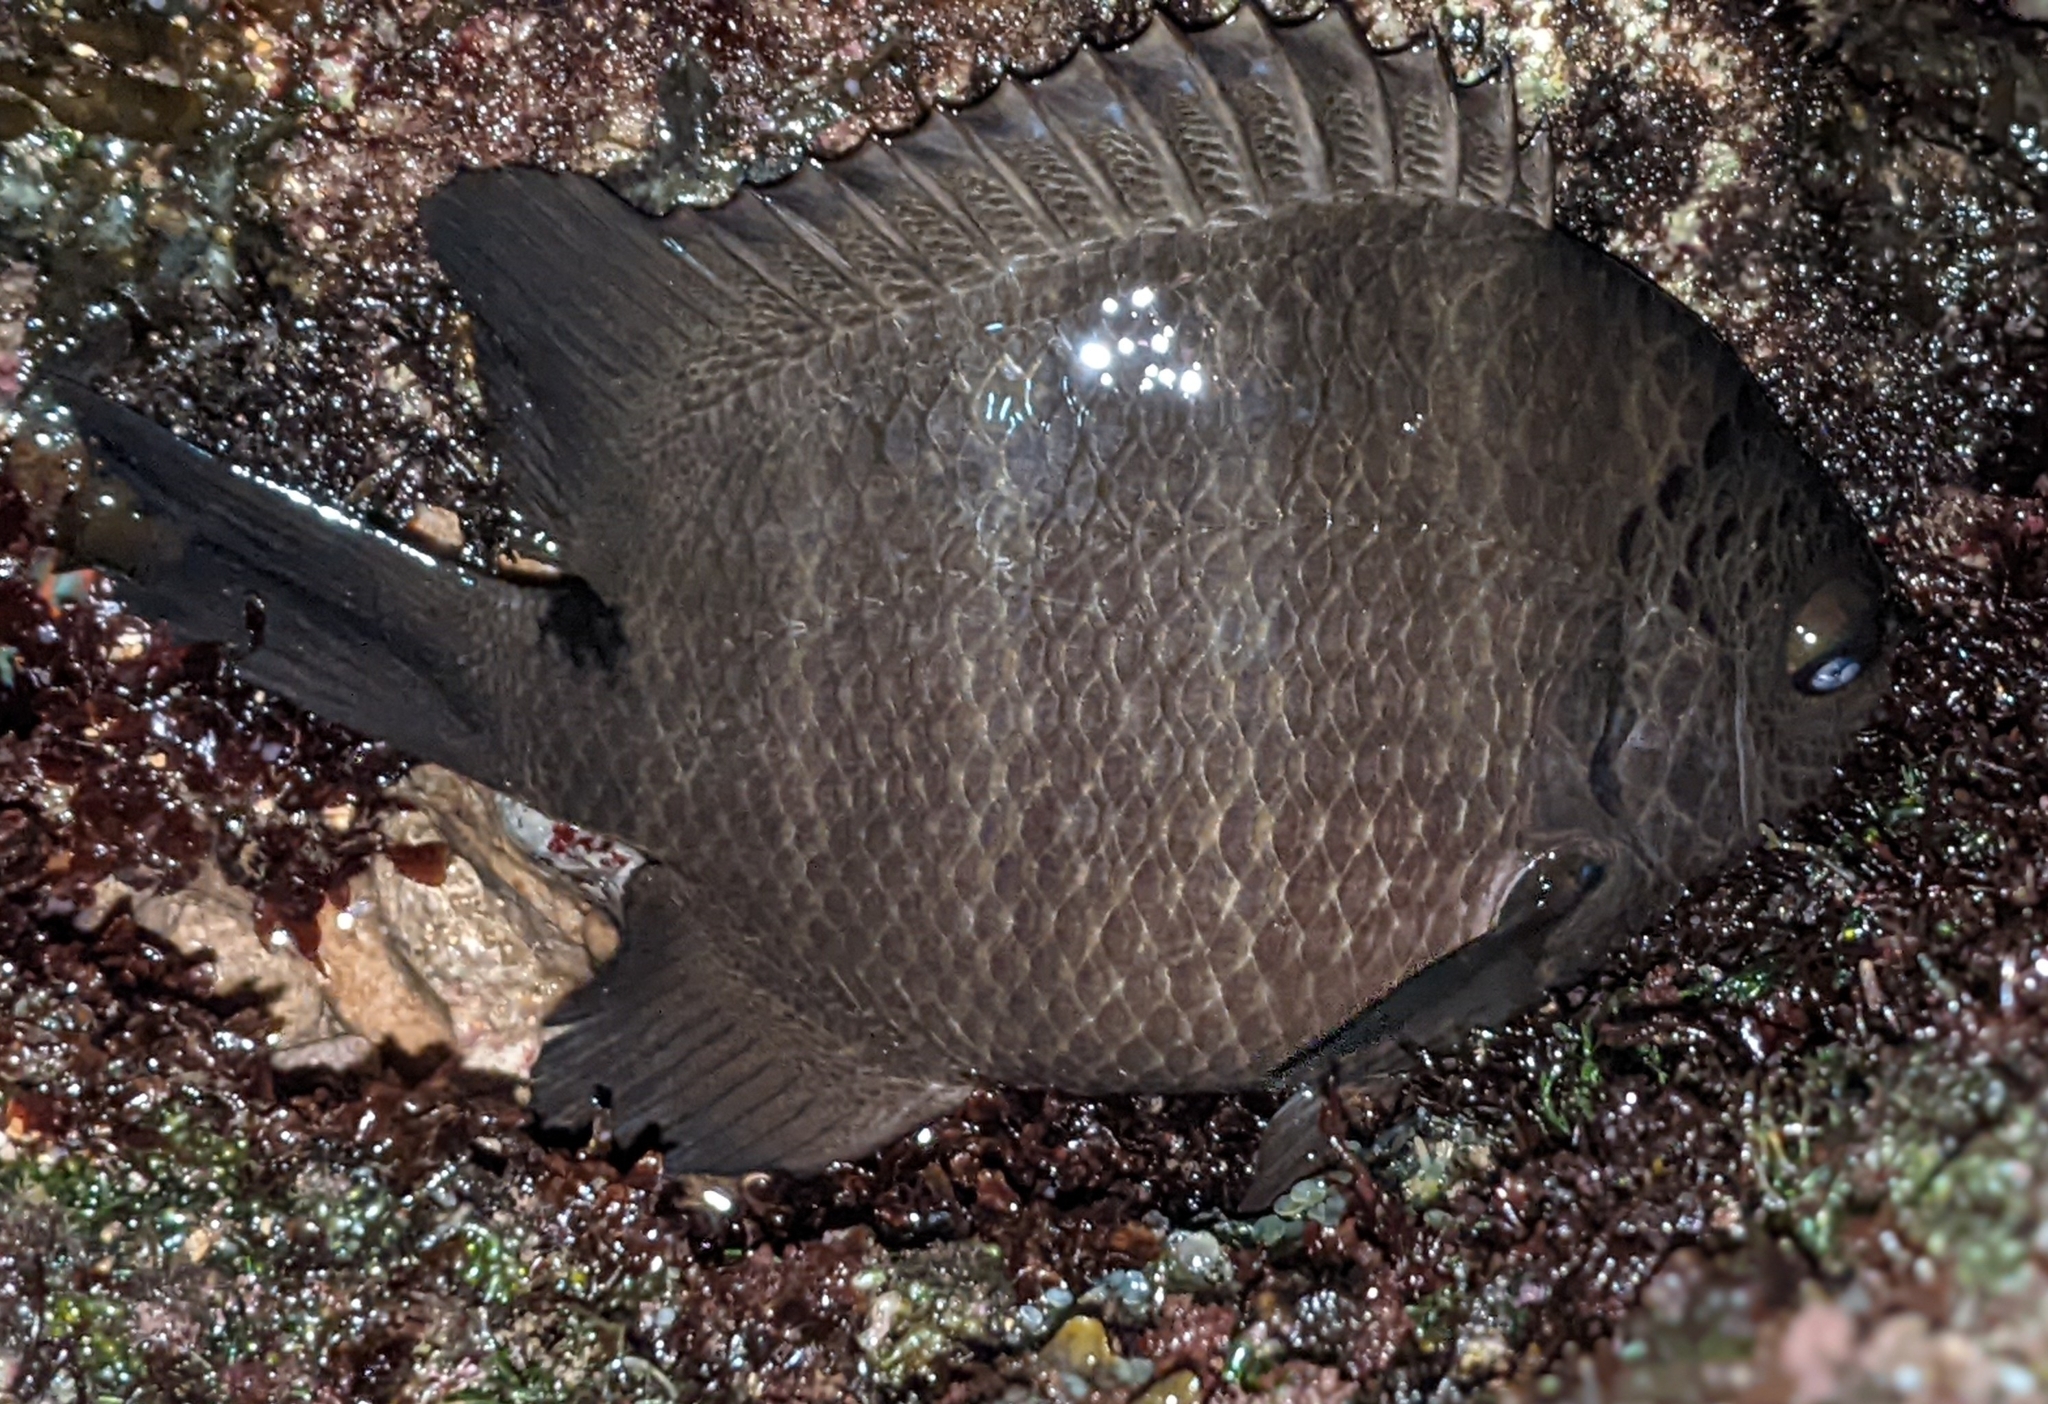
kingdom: Animalia
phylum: Chordata
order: Perciformes
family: Pomacentridae
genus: Abudefduf
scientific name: Abudefduf sordidus
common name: Blackspot sergeant
